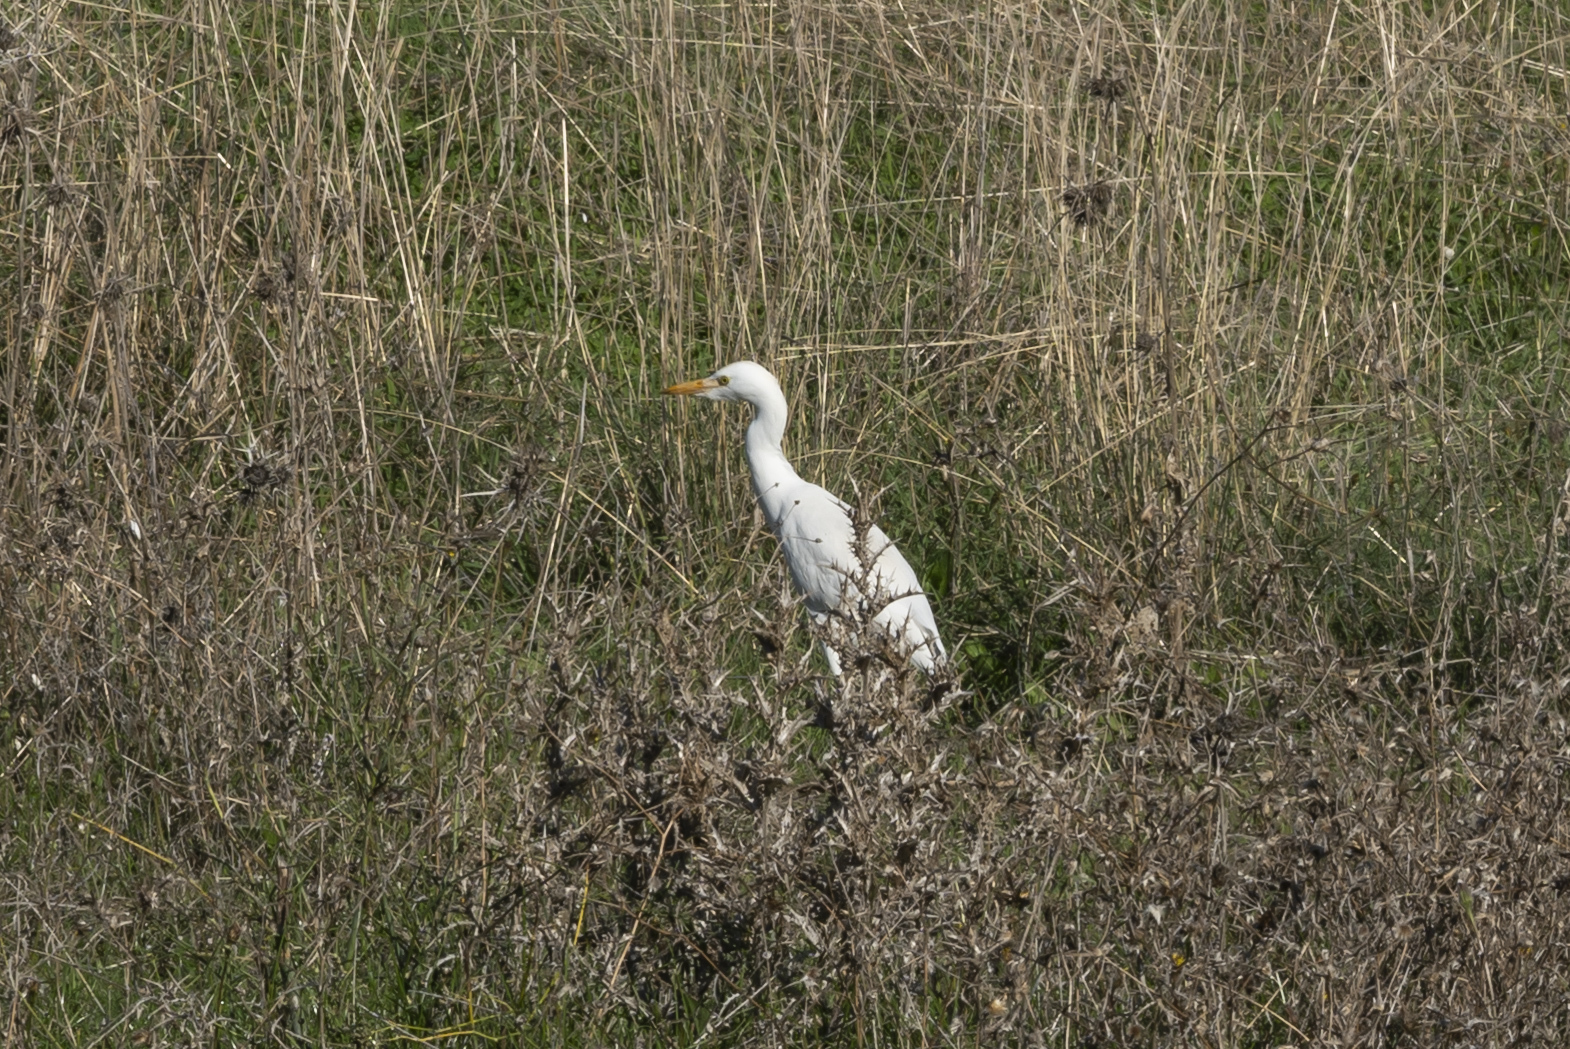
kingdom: Animalia
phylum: Chordata
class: Aves
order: Pelecaniformes
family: Ardeidae
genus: Bubulcus
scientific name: Bubulcus ibis
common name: Cattle egret
